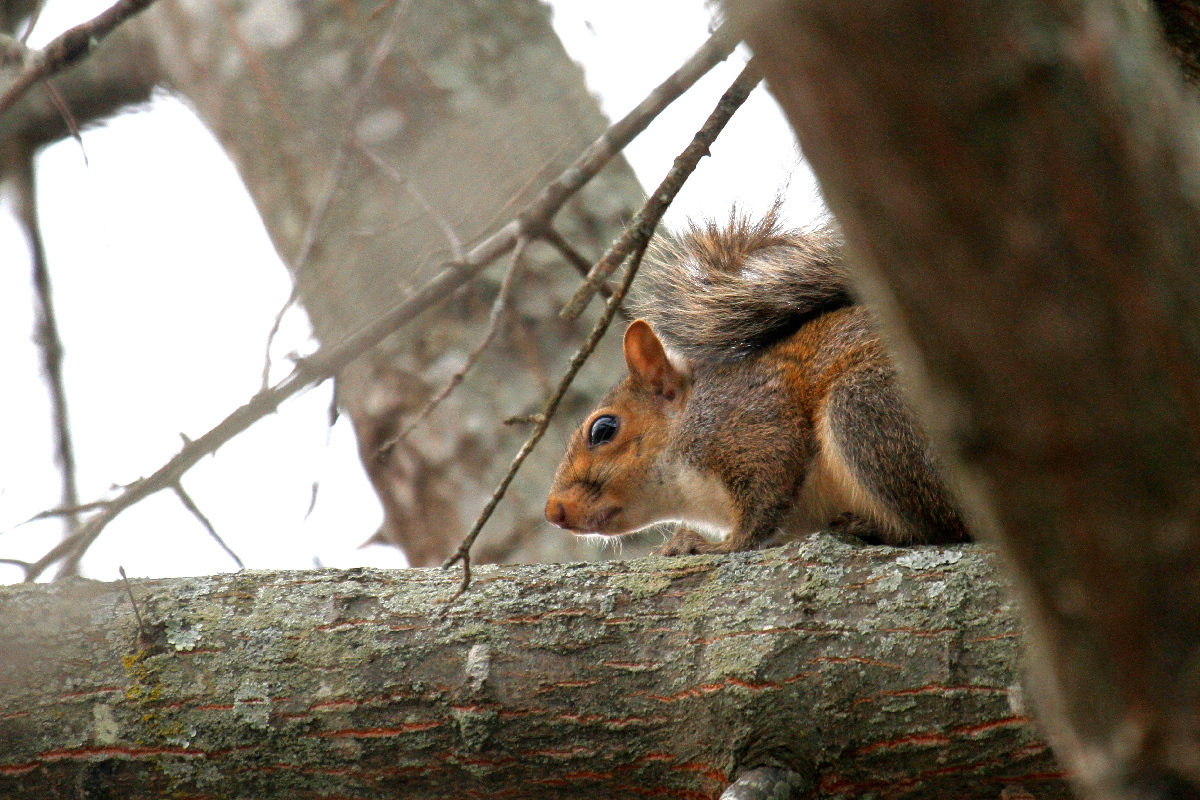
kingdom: Animalia
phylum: Chordata
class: Mammalia
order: Rodentia
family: Sciuridae
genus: Sciurus
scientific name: Sciurus carolinensis
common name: Eastern gray squirrel
